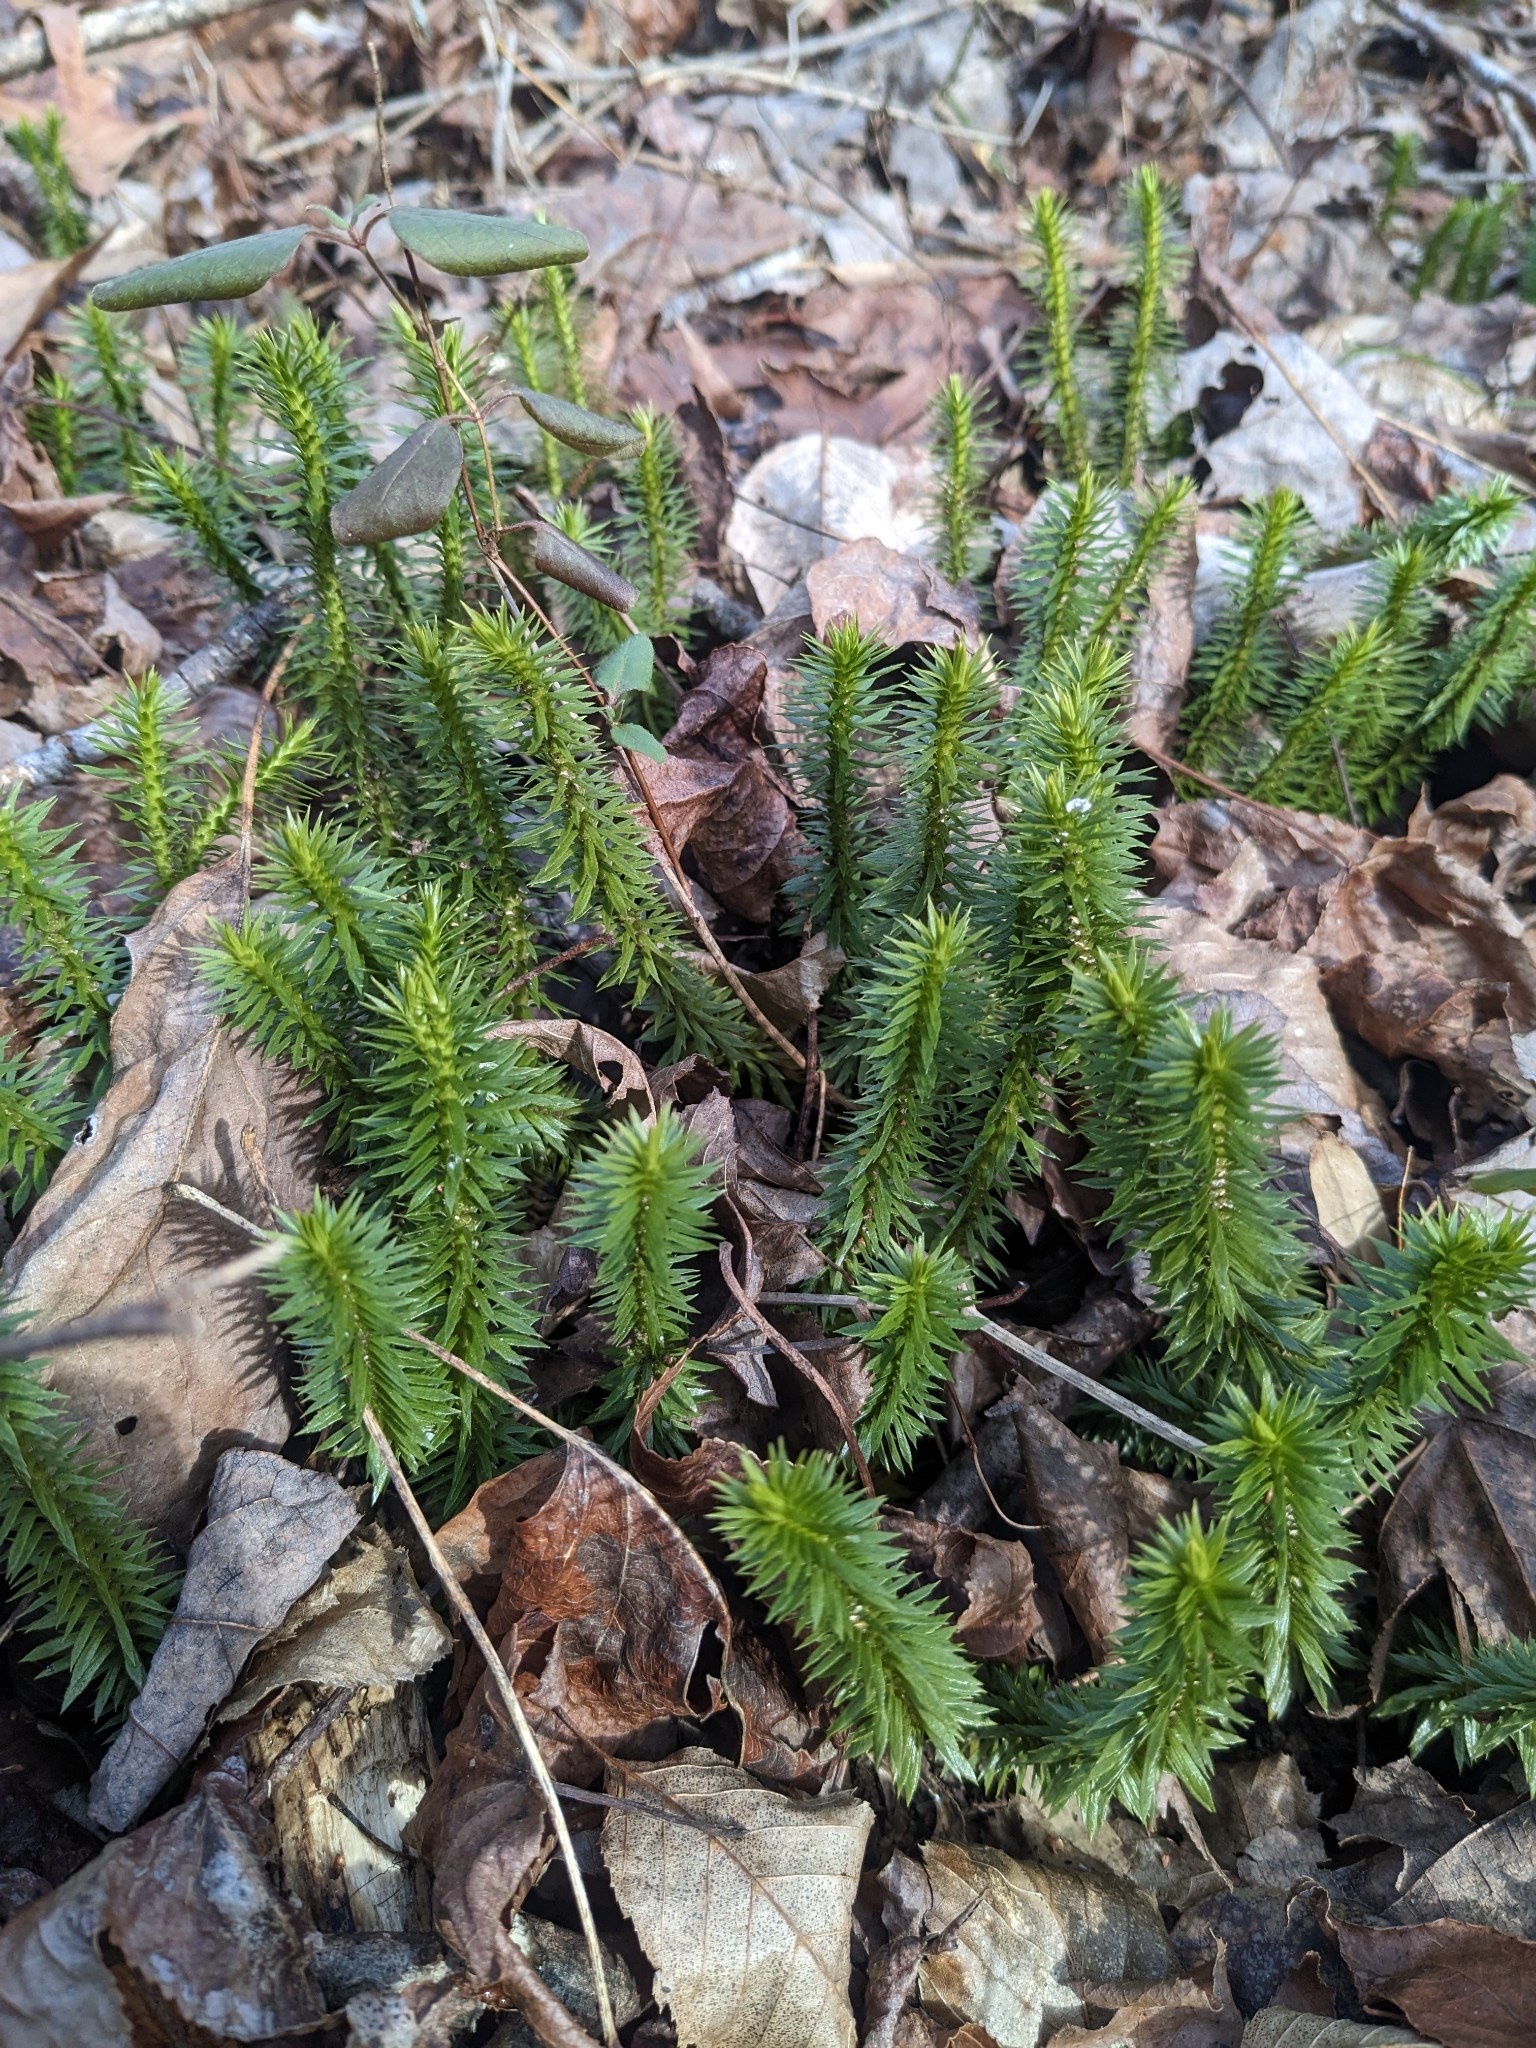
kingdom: Plantae
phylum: Tracheophyta
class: Lycopodiopsida
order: Lycopodiales
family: Lycopodiaceae
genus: Huperzia
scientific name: Huperzia lucidula
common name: Shining clubmoss
